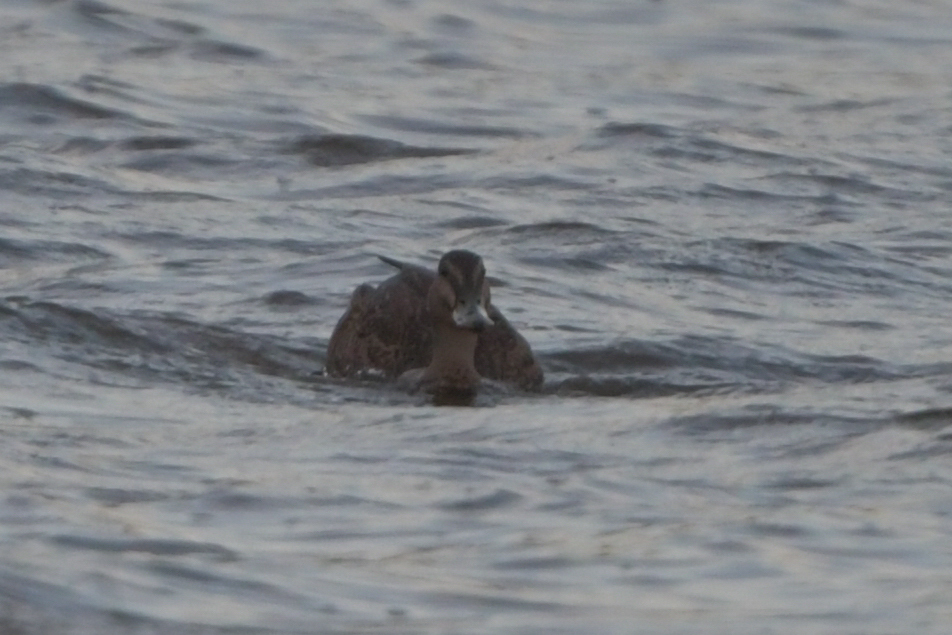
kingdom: Animalia
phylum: Chordata
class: Aves
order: Anseriformes
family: Anatidae
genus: Anas
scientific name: Anas
